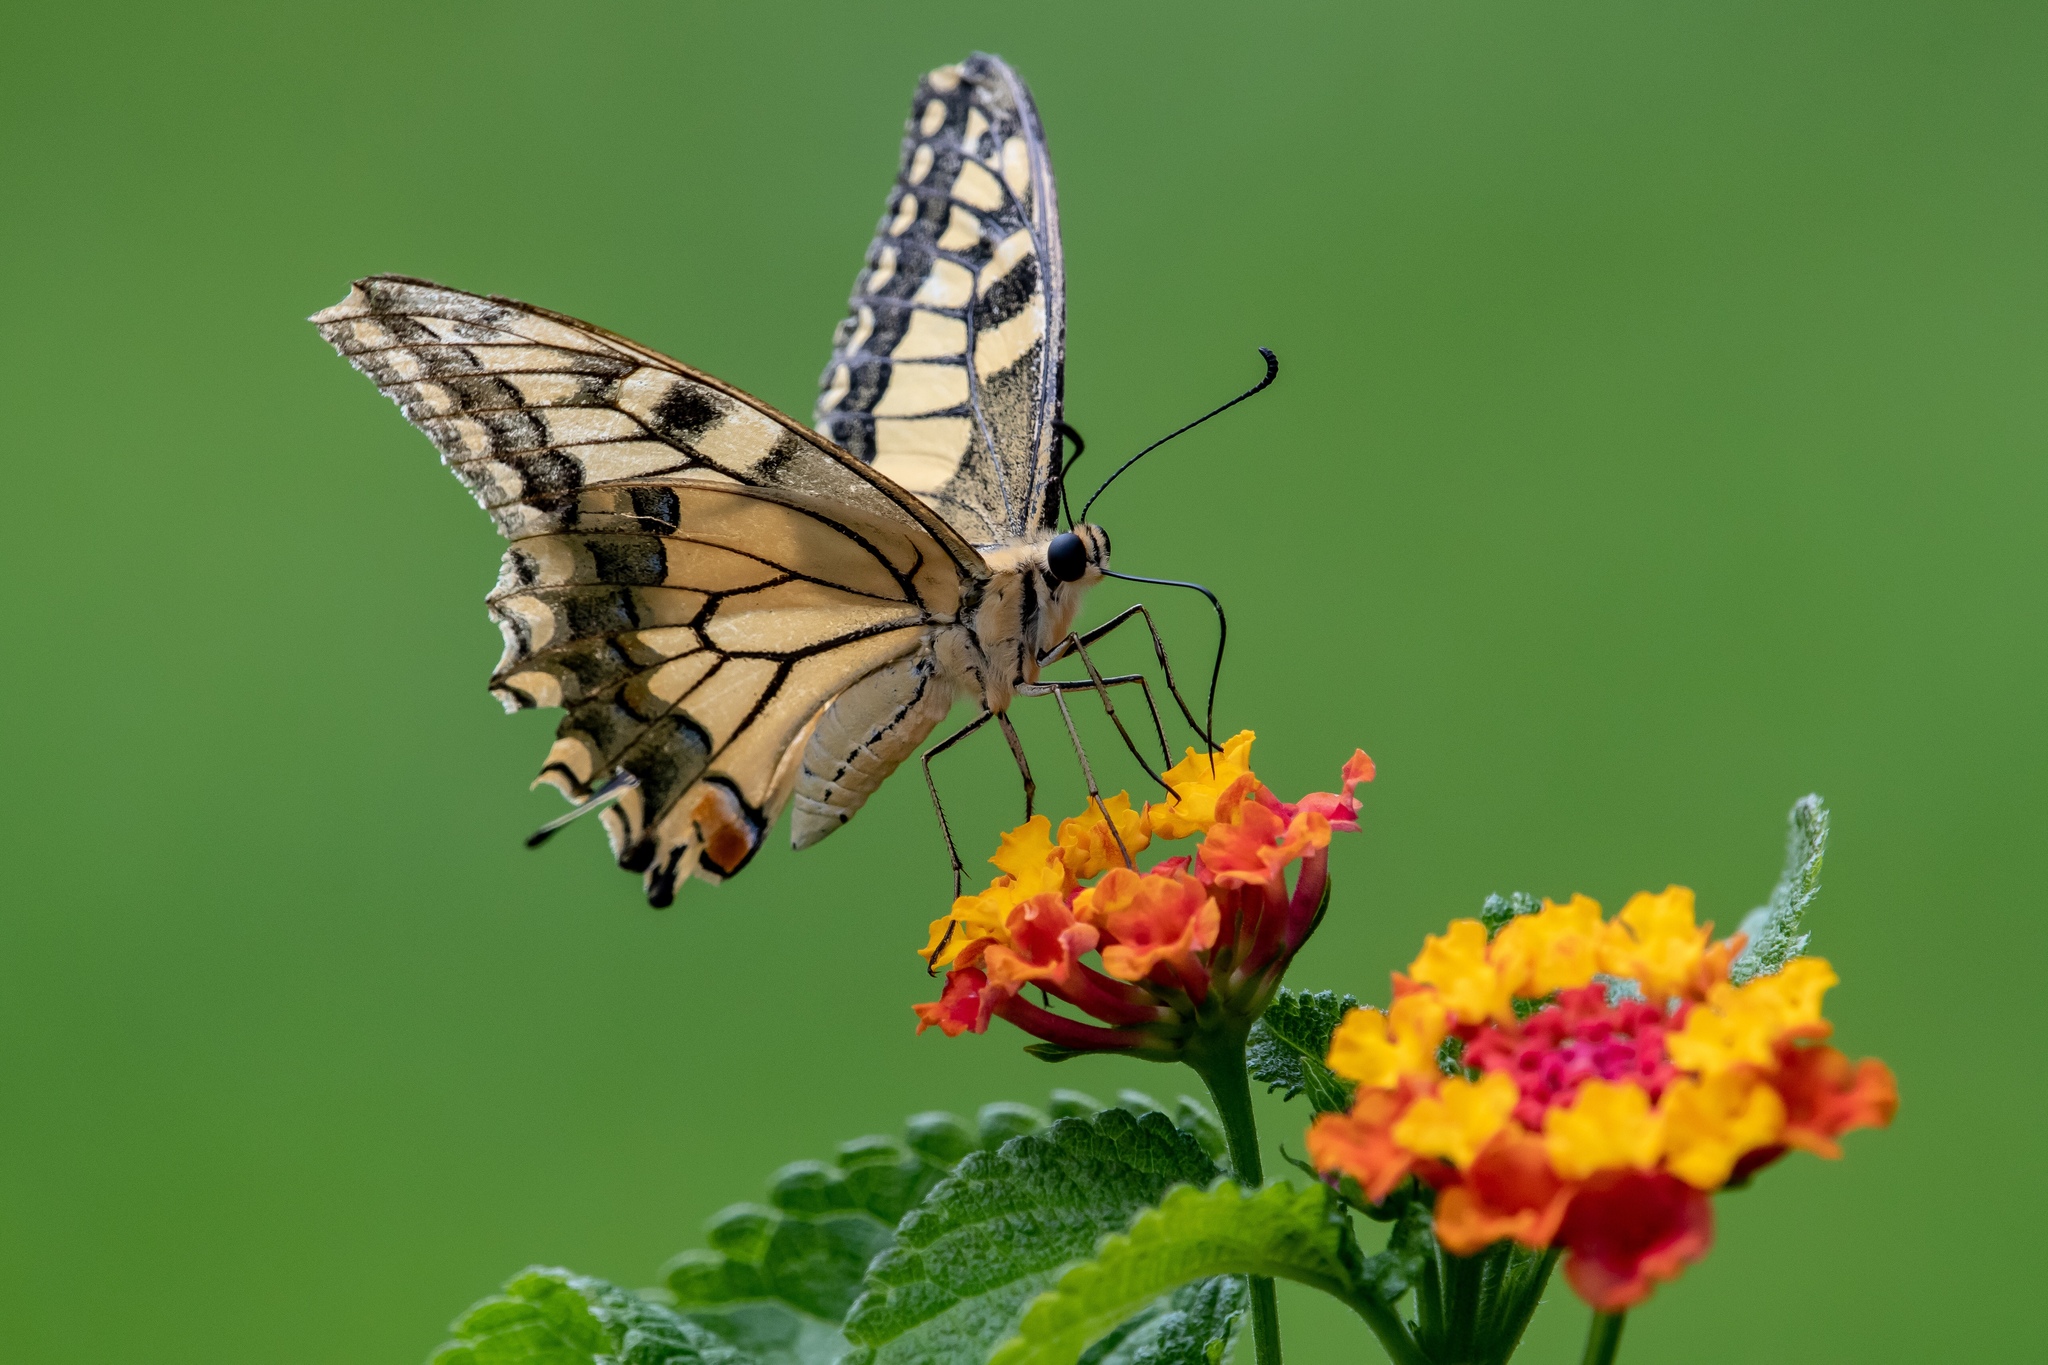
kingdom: Animalia
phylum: Arthropoda
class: Insecta
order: Lepidoptera
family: Papilionidae
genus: Papilio
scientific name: Papilio machaon
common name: Swallowtail
